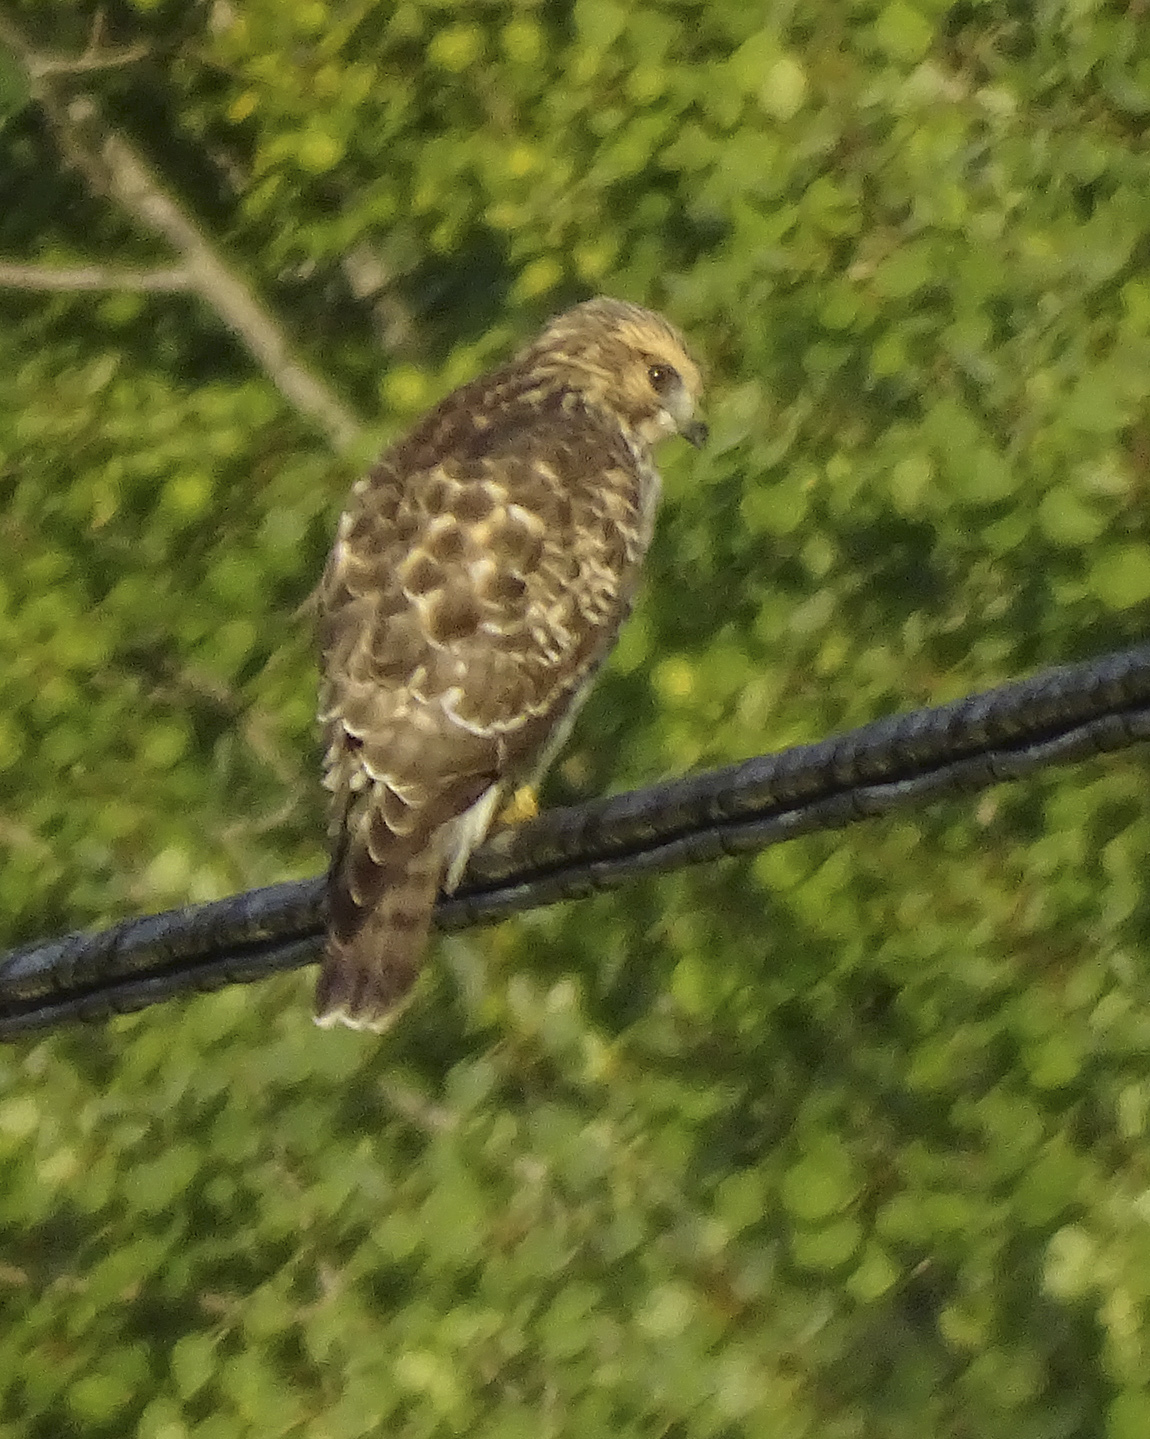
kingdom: Animalia
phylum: Chordata
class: Aves
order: Accipitriformes
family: Accipitridae
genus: Buteo
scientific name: Buteo platypterus
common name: Broad-winged hawk
